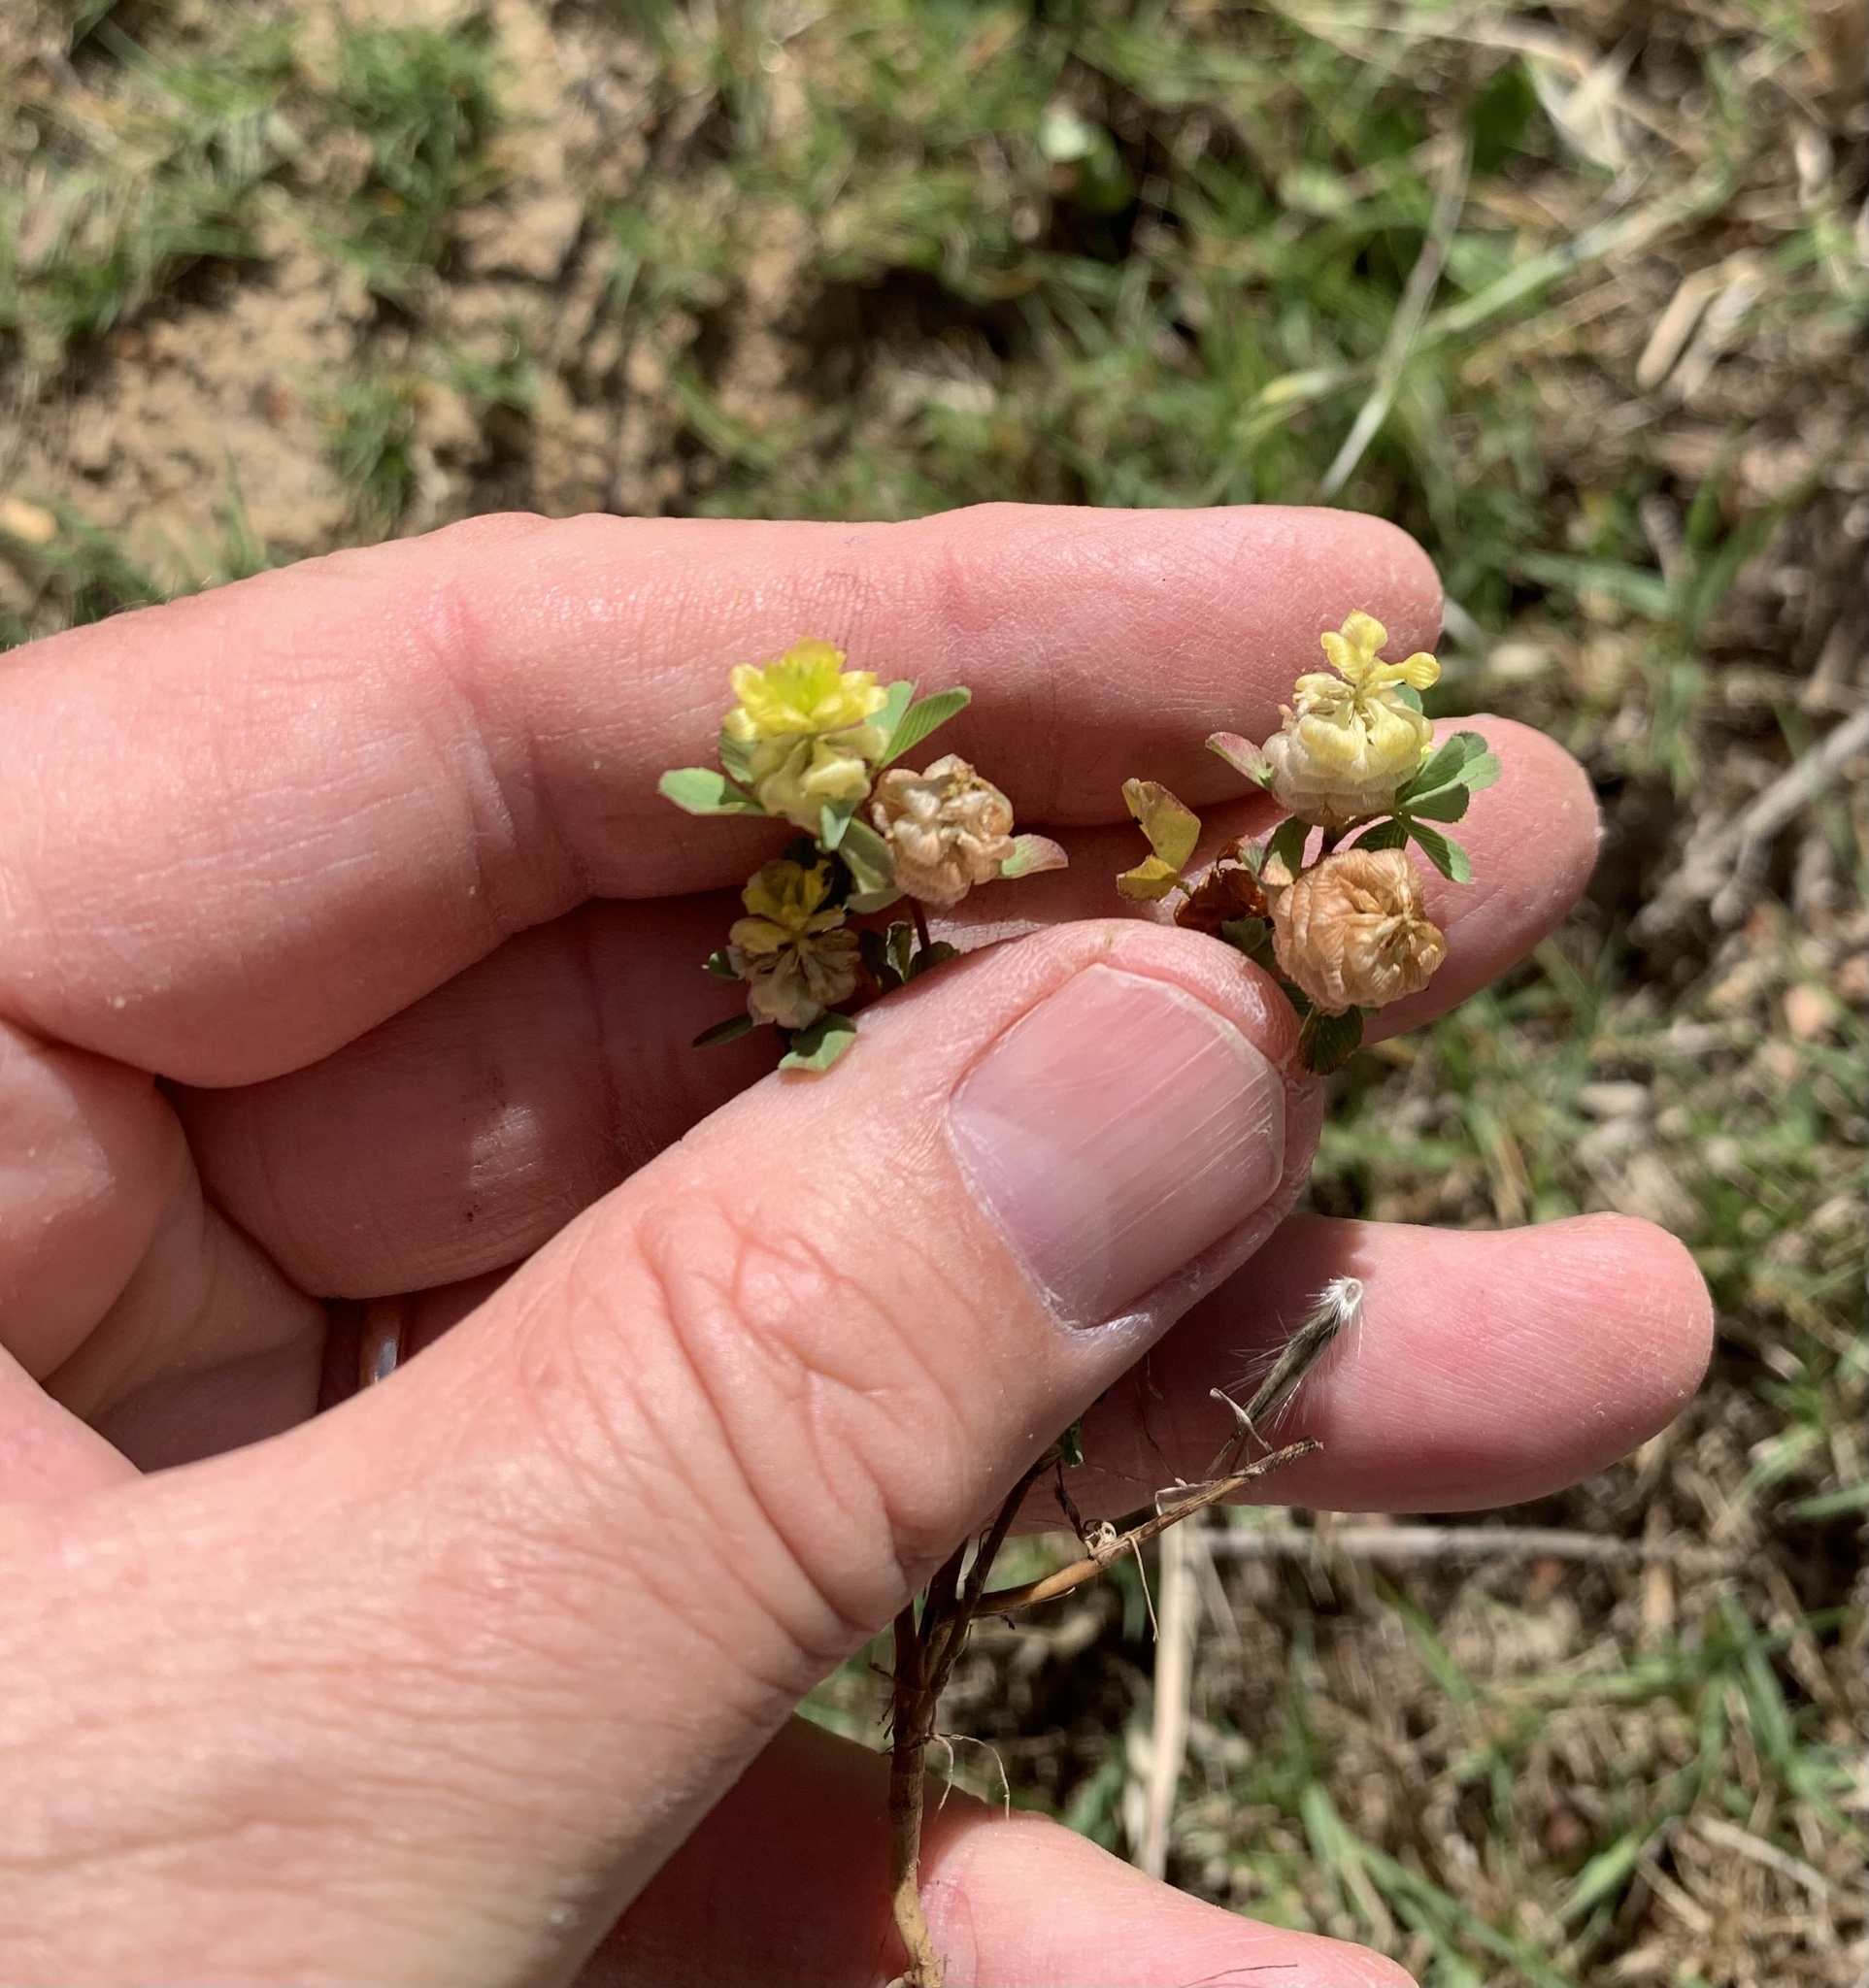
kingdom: Plantae
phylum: Tracheophyta
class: Magnoliopsida
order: Fabales
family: Fabaceae
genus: Trifolium
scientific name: Trifolium campestre
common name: Field clover
